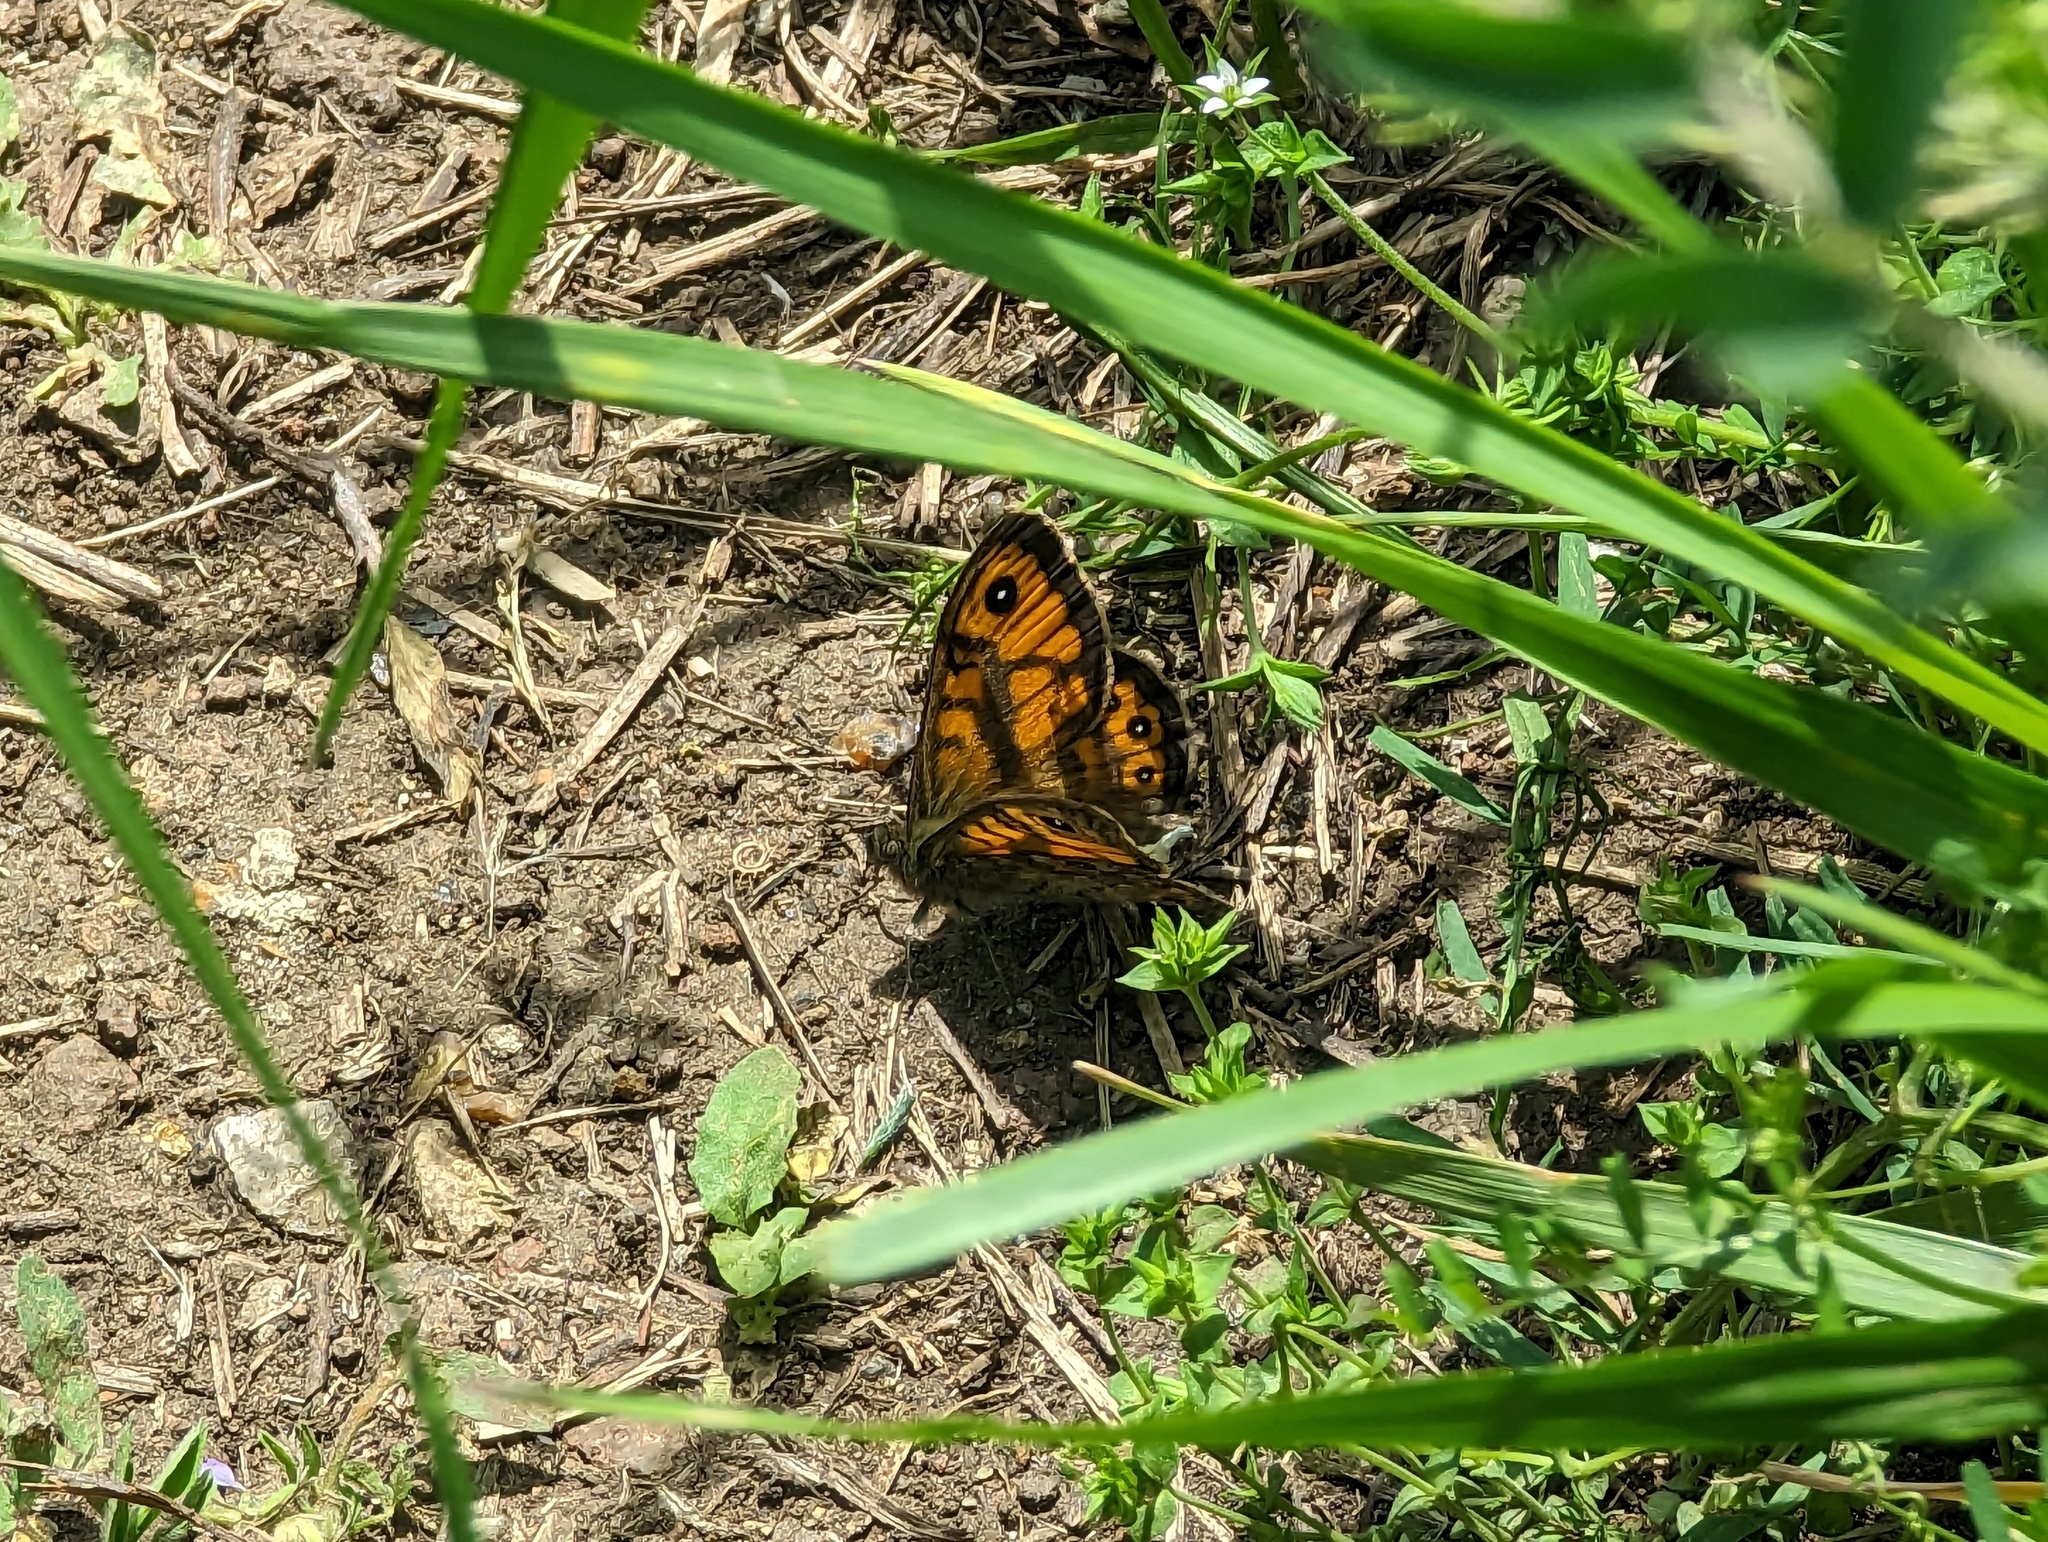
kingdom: Animalia
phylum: Arthropoda
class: Insecta
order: Lepidoptera
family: Nymphalidae
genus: Pararge
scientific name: Pararge Lasiommata megera
